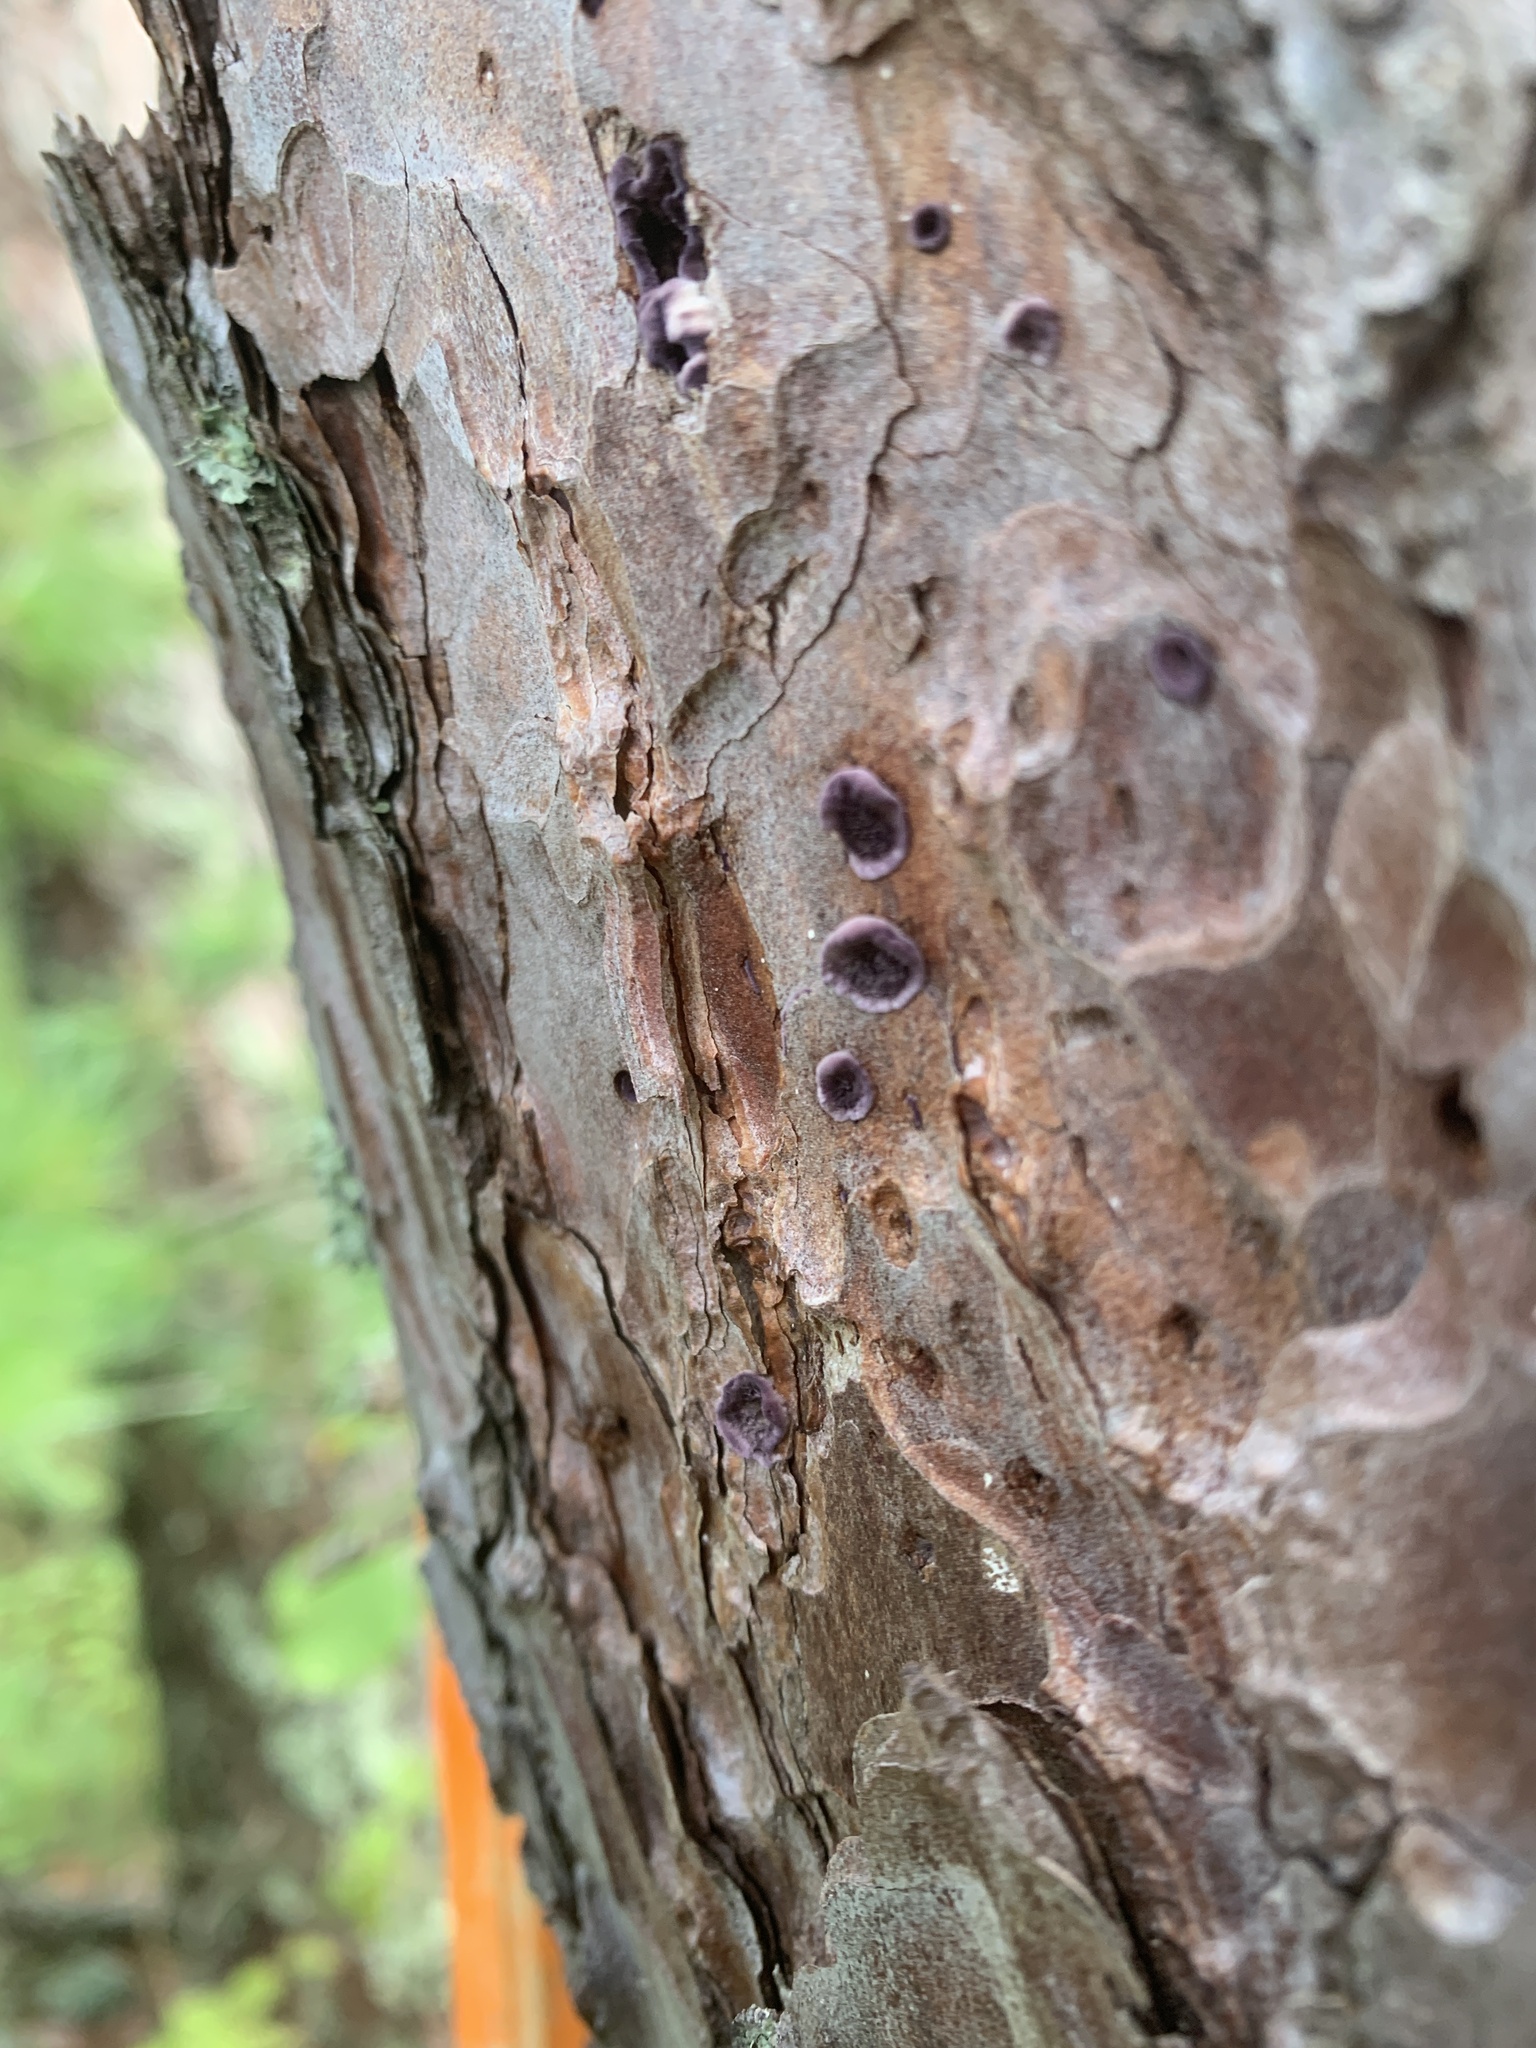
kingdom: Fungi
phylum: Basidiomycota
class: Agaricomycetes
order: Hymenochaetales
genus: Trichaptum
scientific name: Trichaptum abietinum
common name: Purplepore bracket
